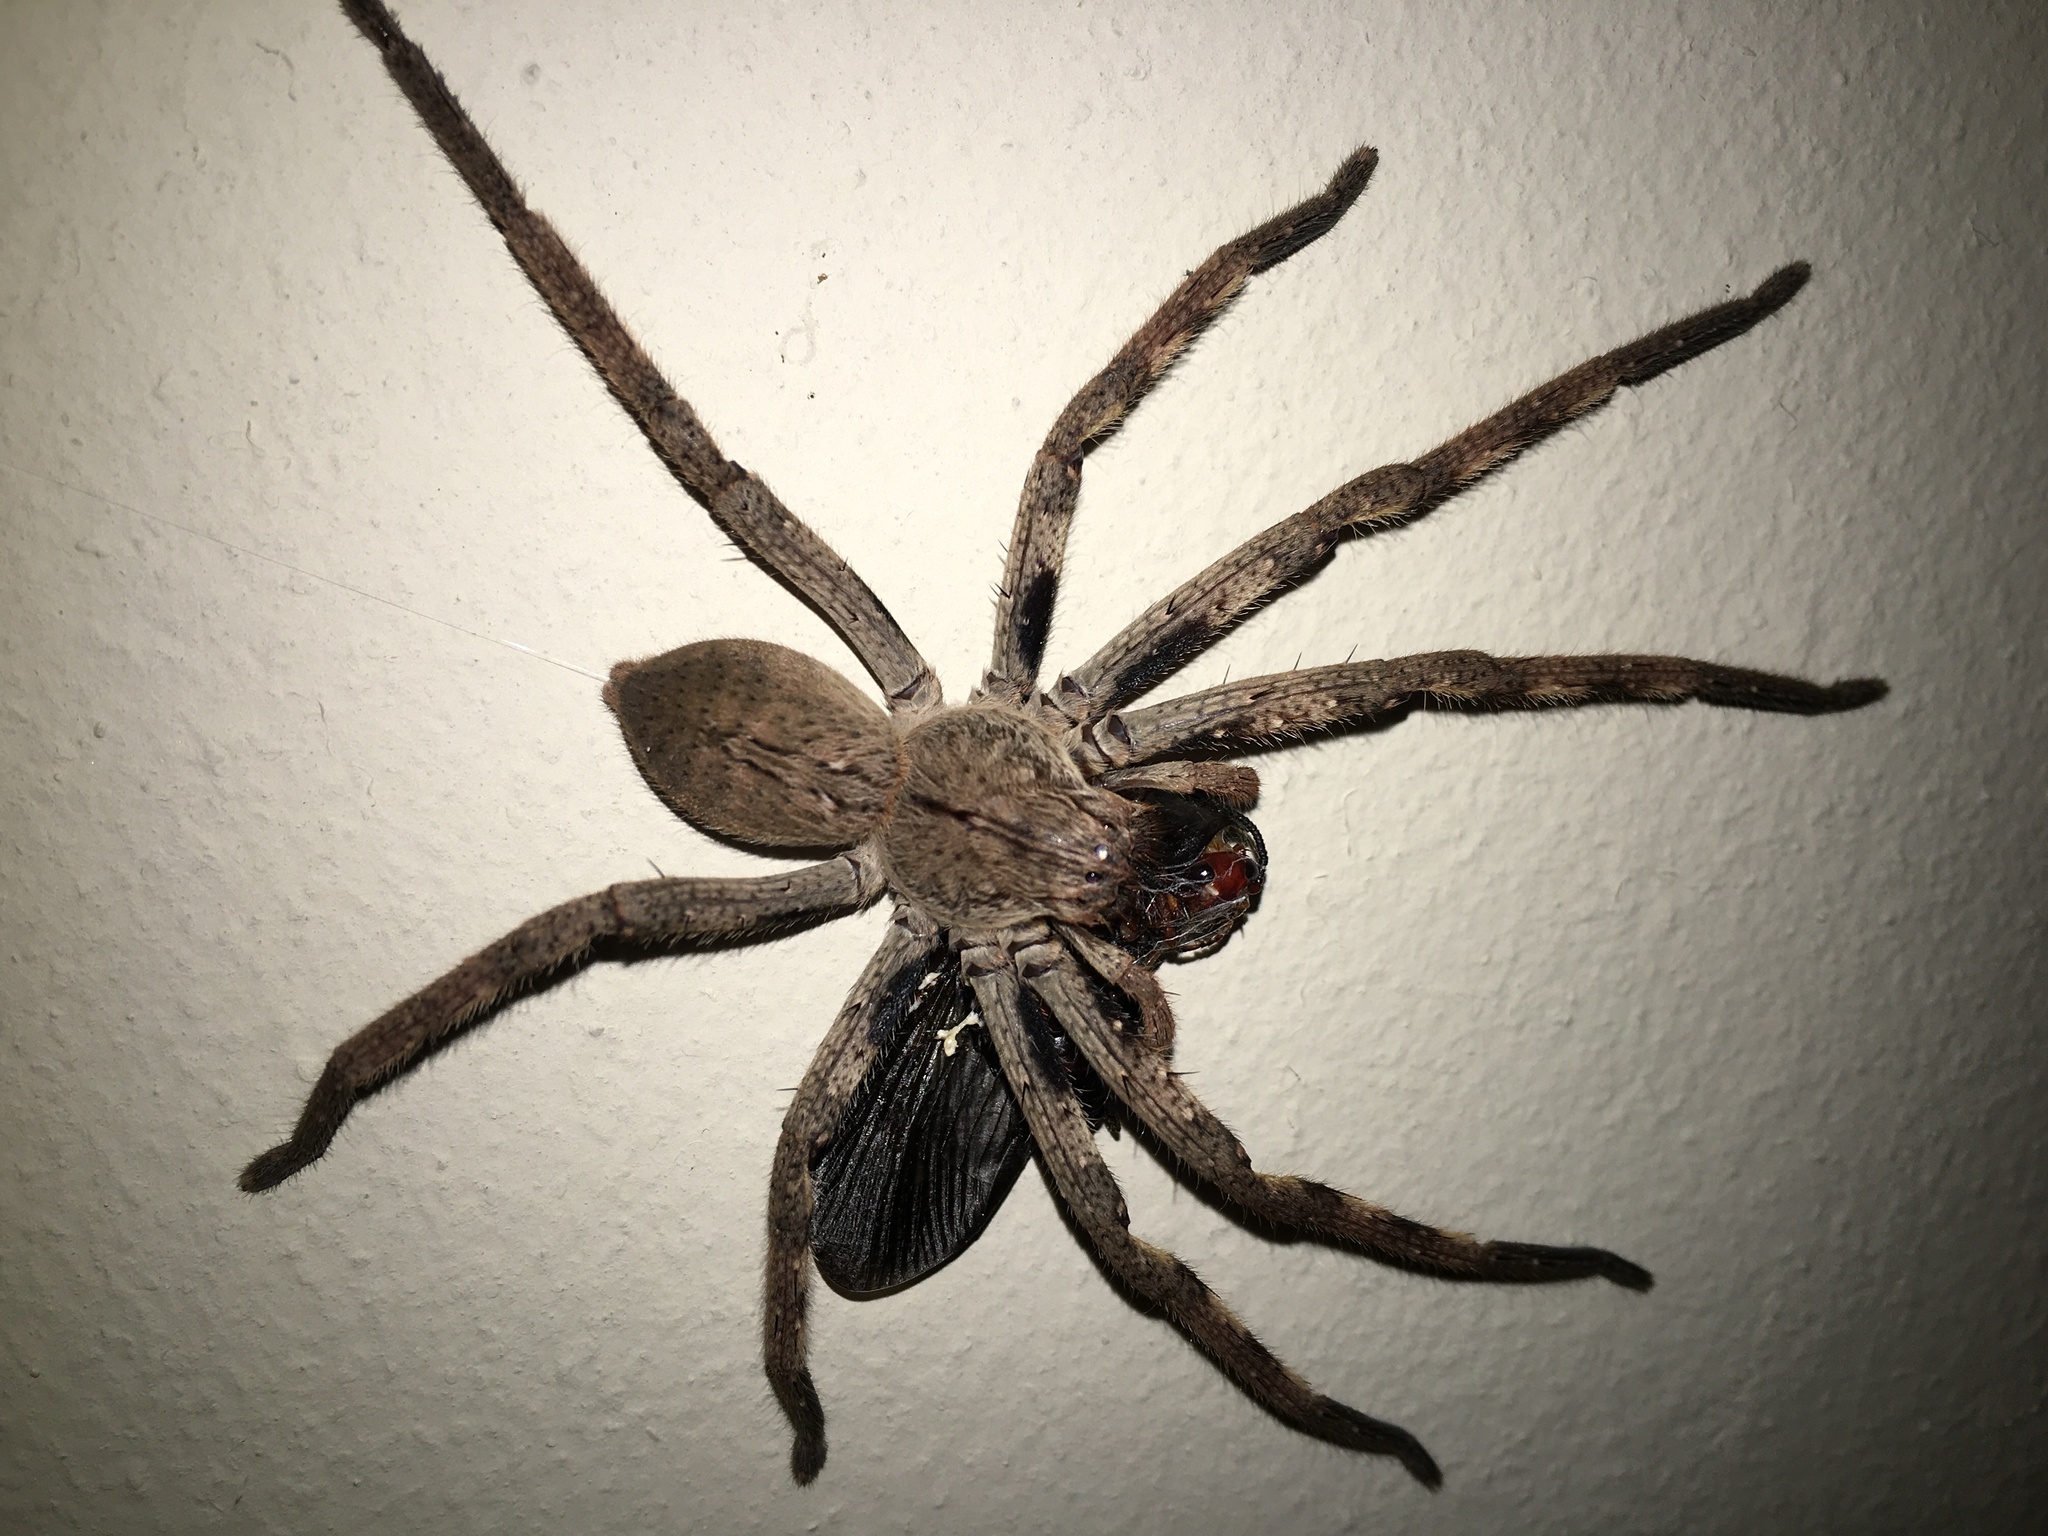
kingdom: Animalia
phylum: Arthropoda
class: Arachnida
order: Araneae
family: Sparassidae
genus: Palystes
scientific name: Palystes superciliosus
